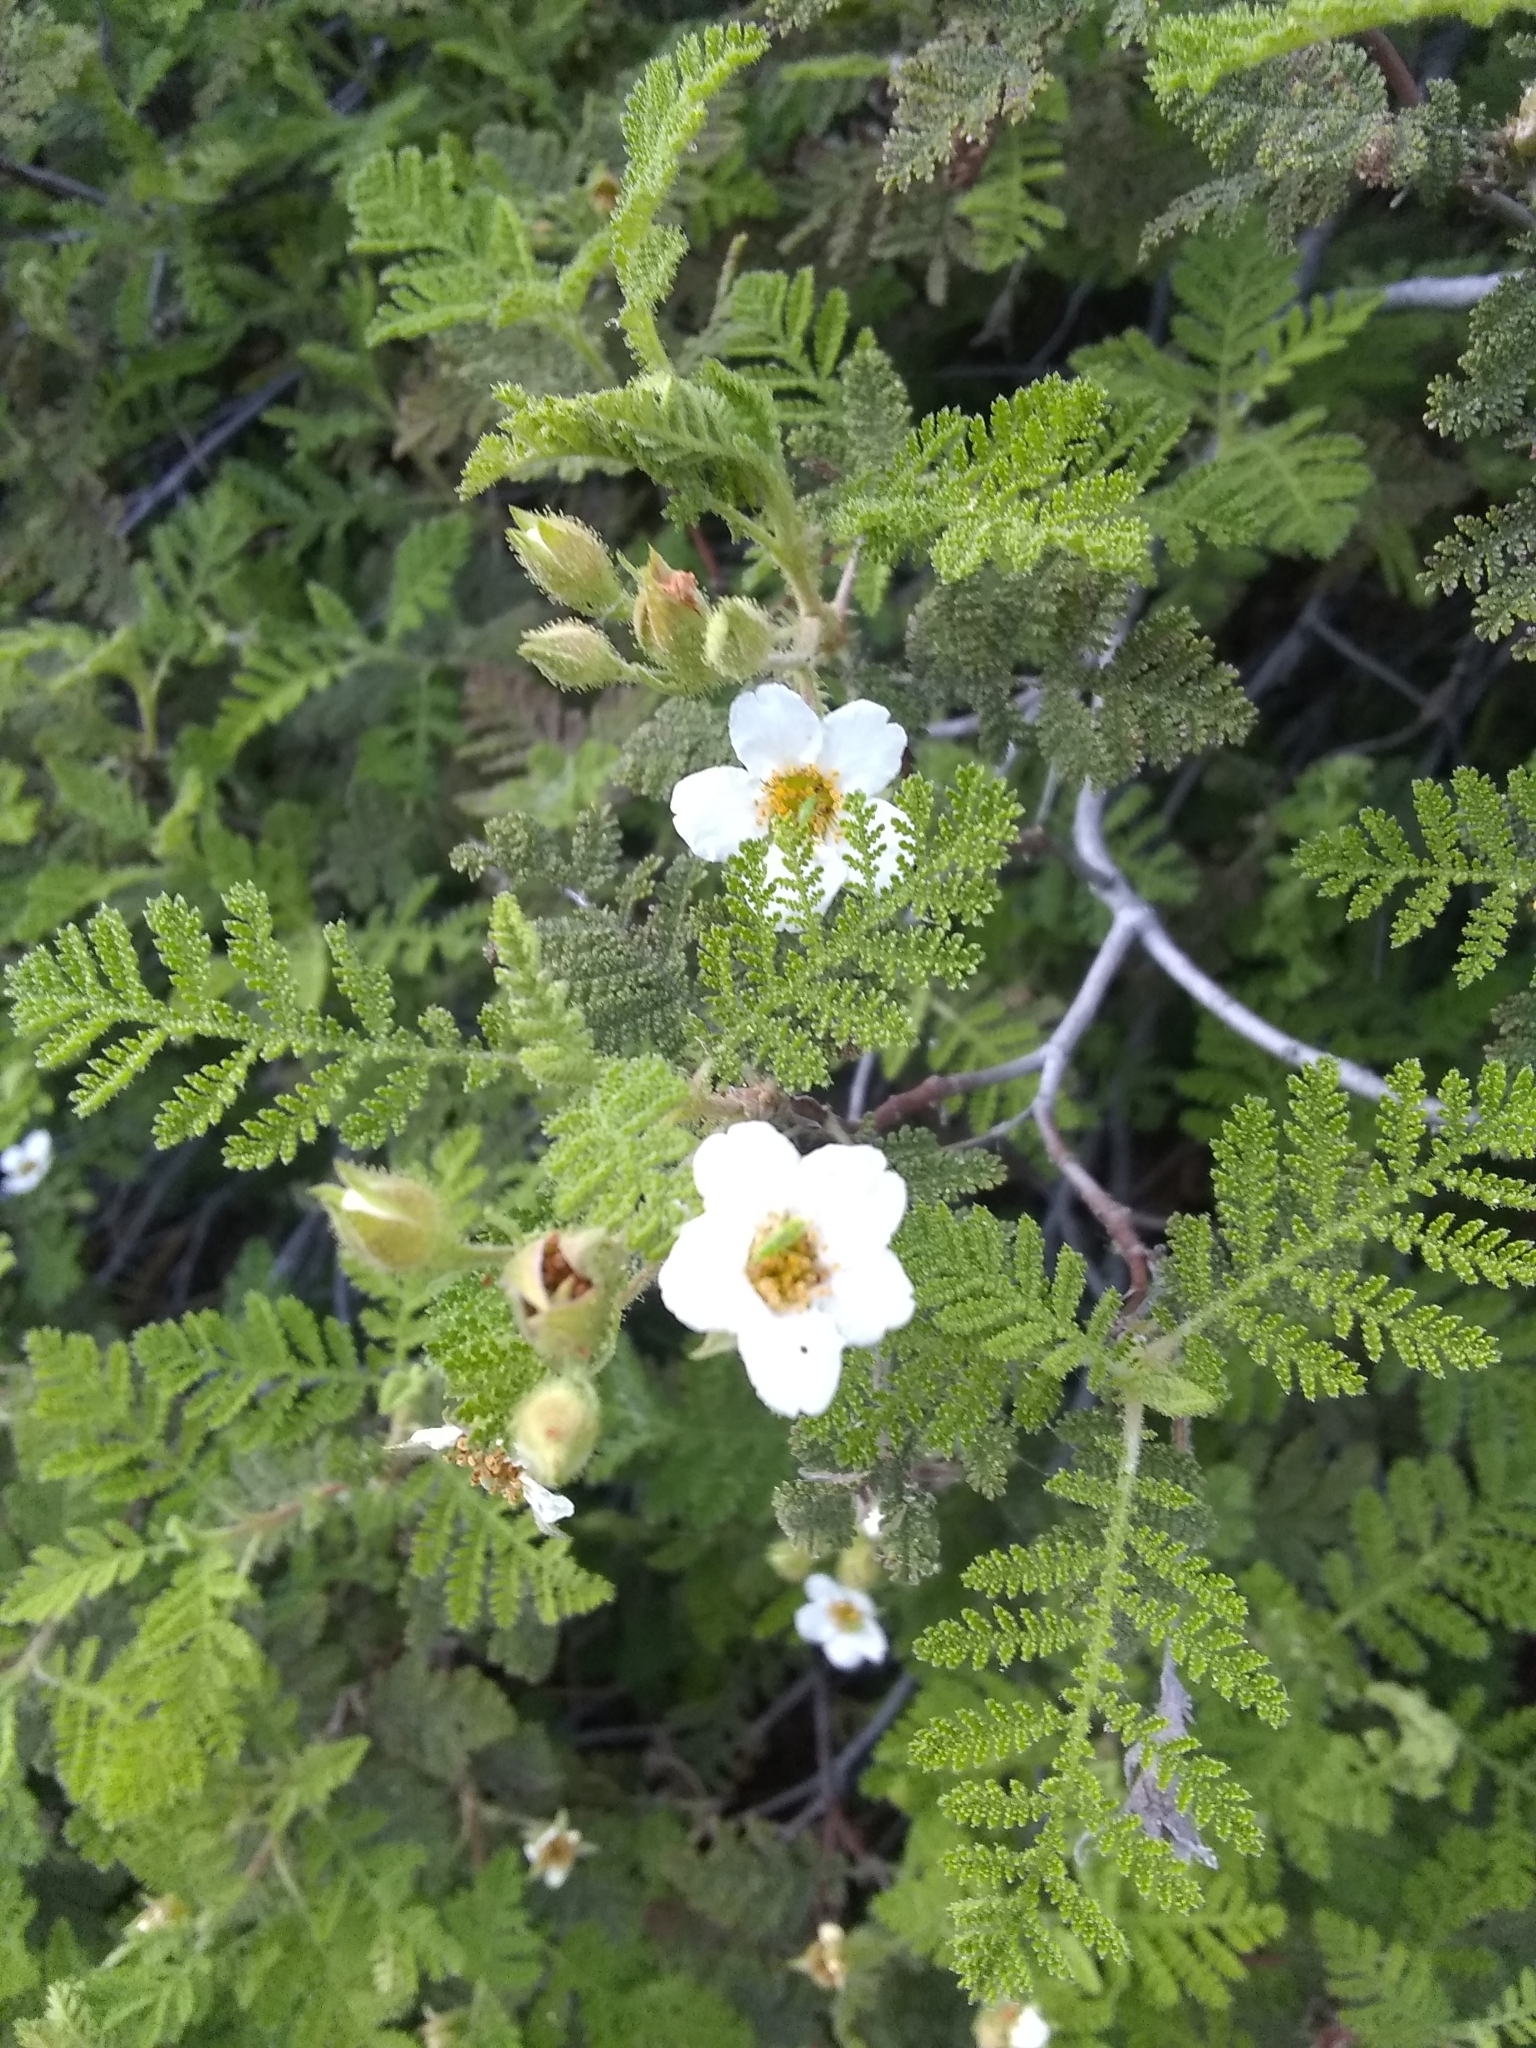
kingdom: Plantae
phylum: Tracheophyta
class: Magnoliopsida
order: Rosales
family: Rosaceae
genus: Chamaebatia
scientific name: Chamaebatia foliolosa
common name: Mountain misery
